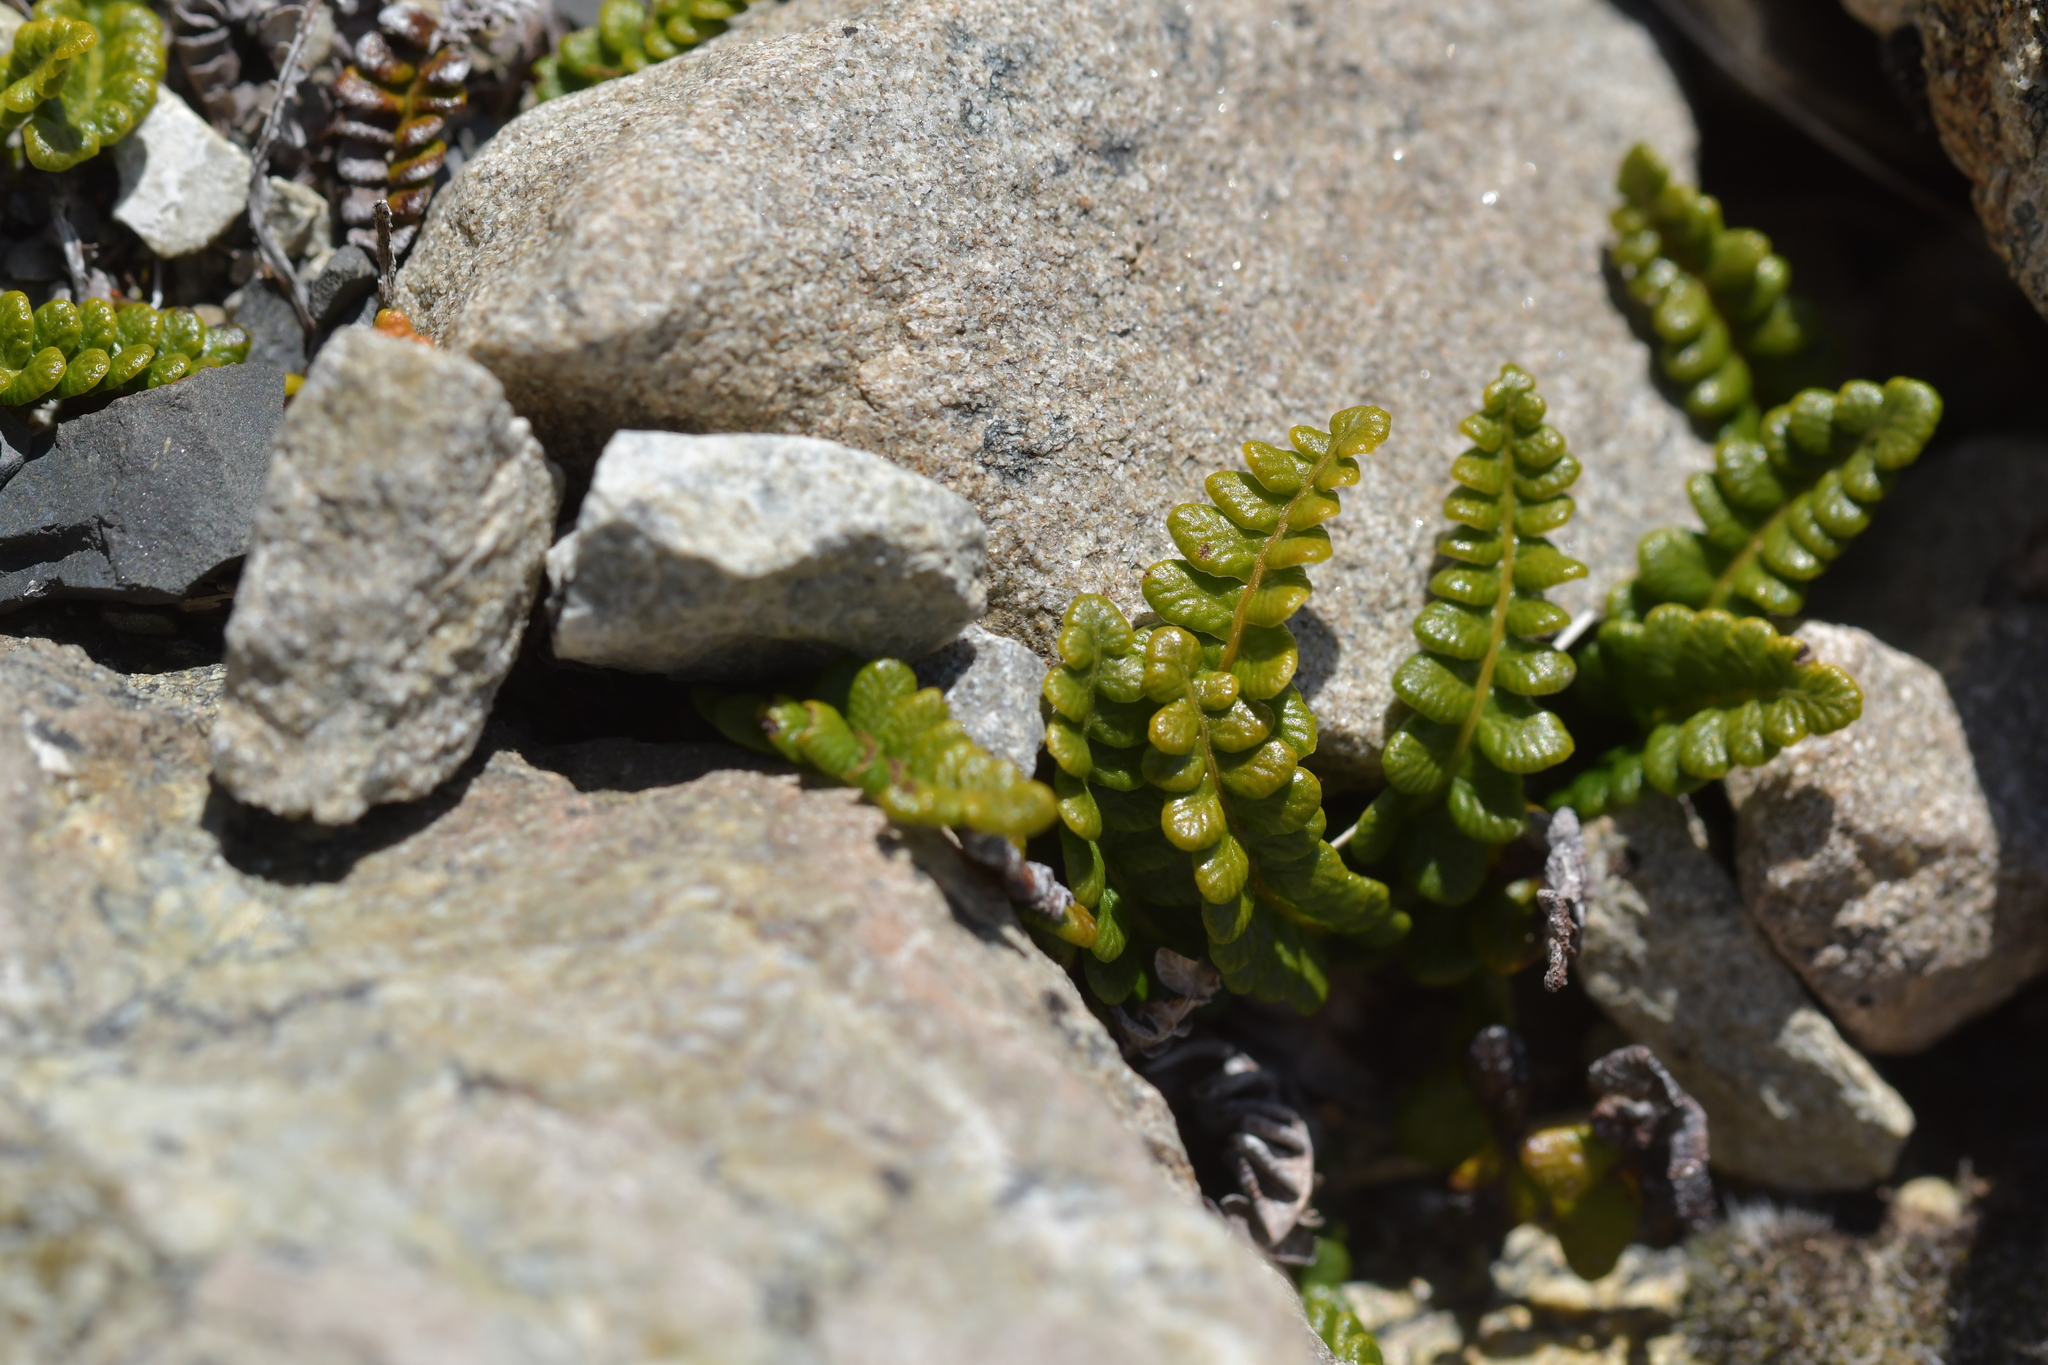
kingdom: Plantae
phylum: Tracheophyta
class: Polypodiopsida
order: Polypodiales
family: Blechnaceae
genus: Austroblechnum
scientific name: Austroblechnum penna-marina
